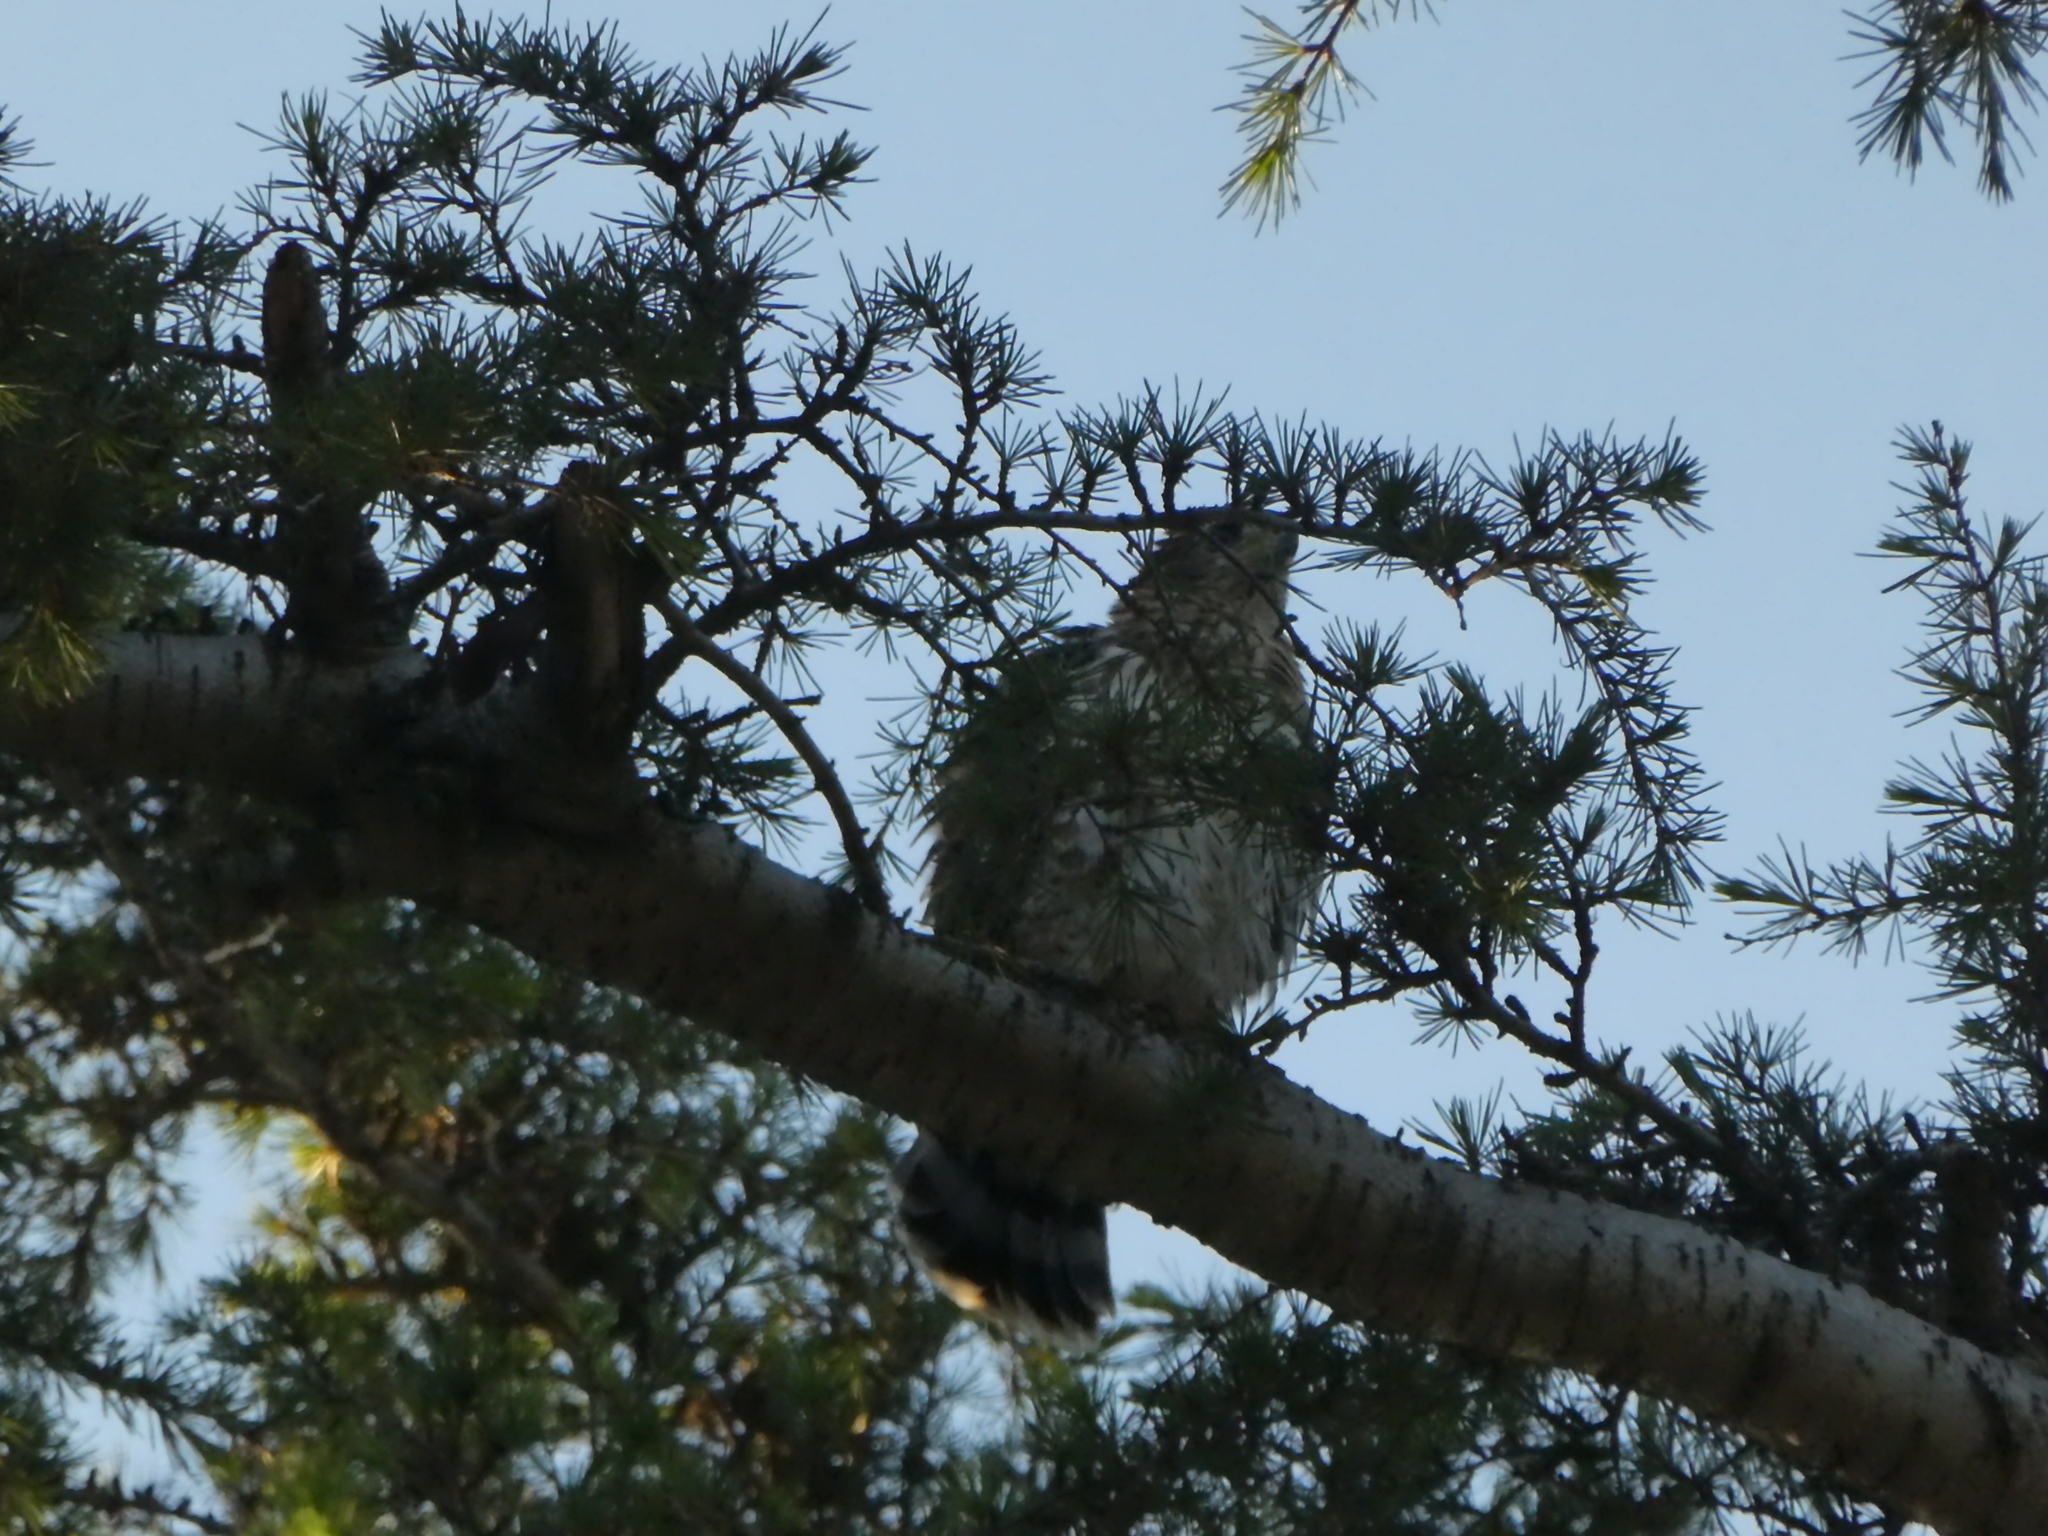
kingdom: Animalia
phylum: Chordata
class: Aves
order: Accipitriformes
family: Accipitridae
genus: Accipiter
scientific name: Accipiter cooperii
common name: Cooper's hawk
